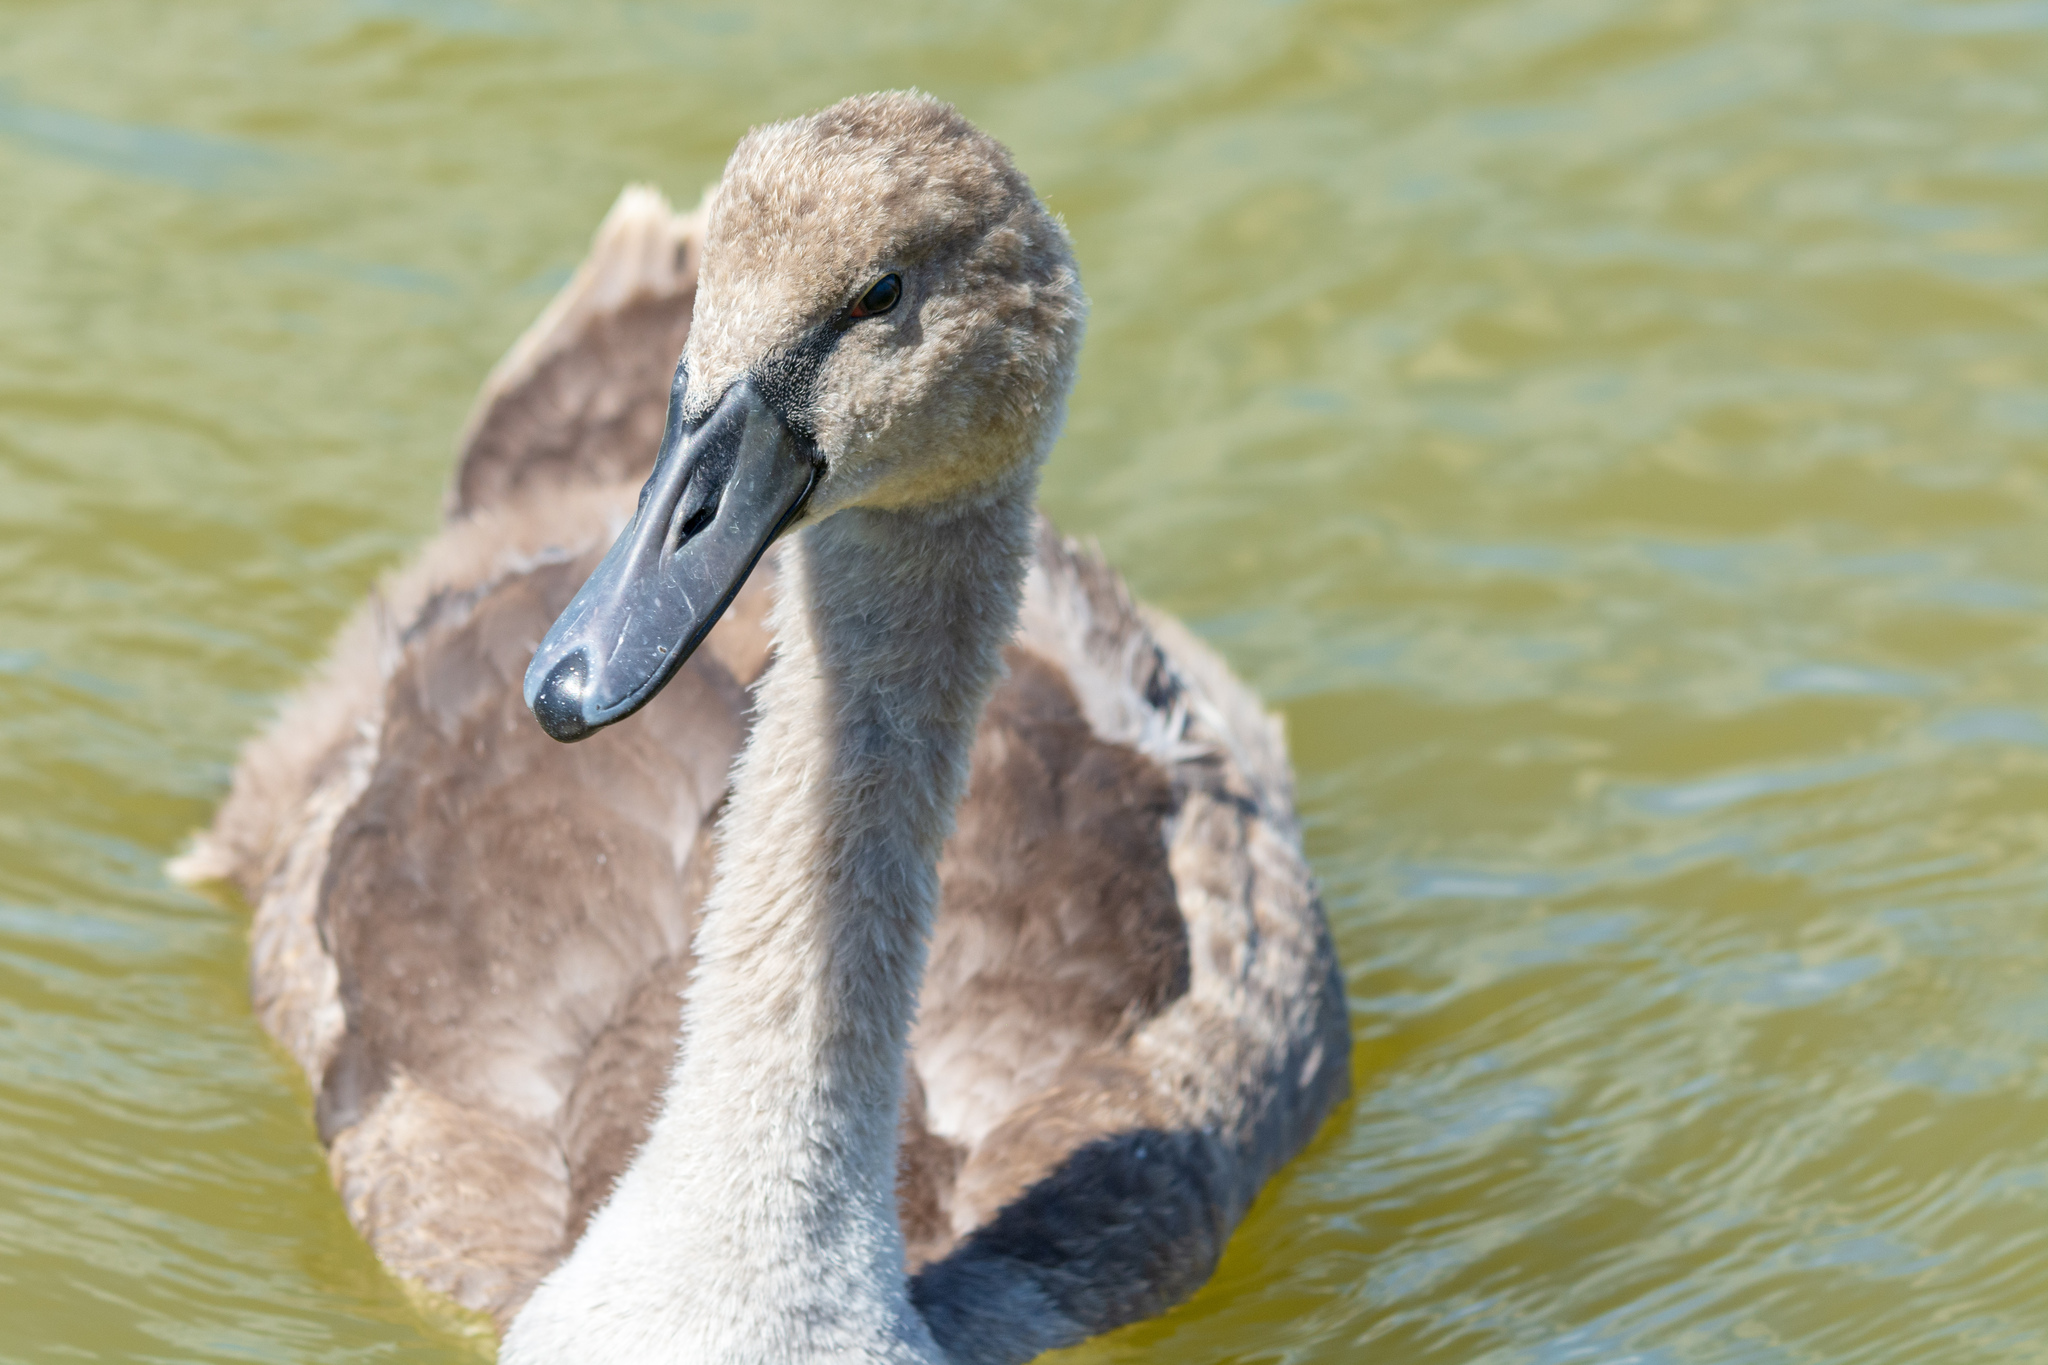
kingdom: Animalia
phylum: Chordata
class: Aves
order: Anseriformes
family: Anatidae
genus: Cygnus
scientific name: Cygnus olor
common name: Mute swan
